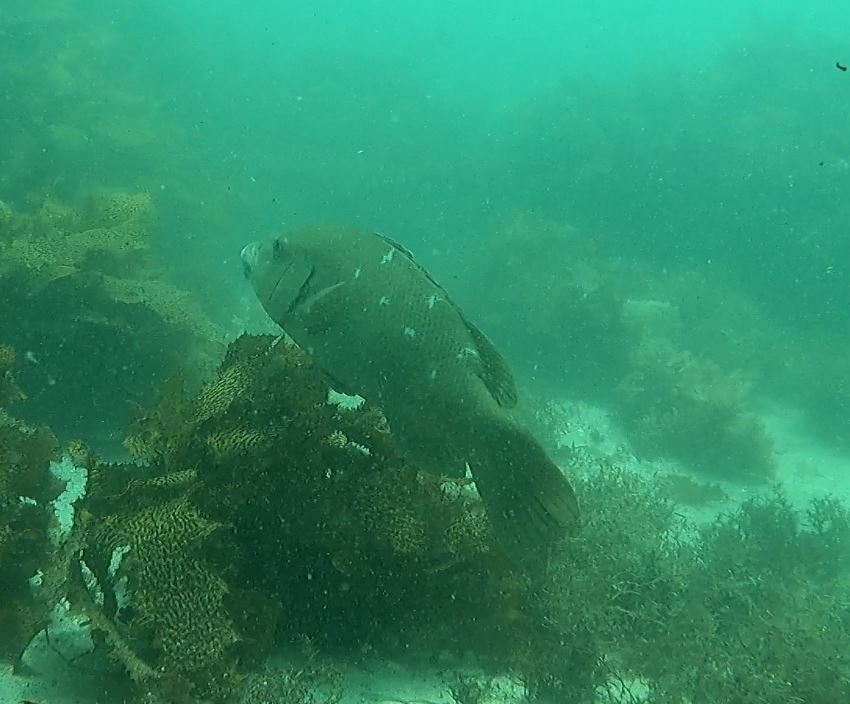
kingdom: Animalia
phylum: Chordata
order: Perciformes
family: Labridae
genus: Achoerodus
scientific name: Achoerodus viridis
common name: Brown groper
